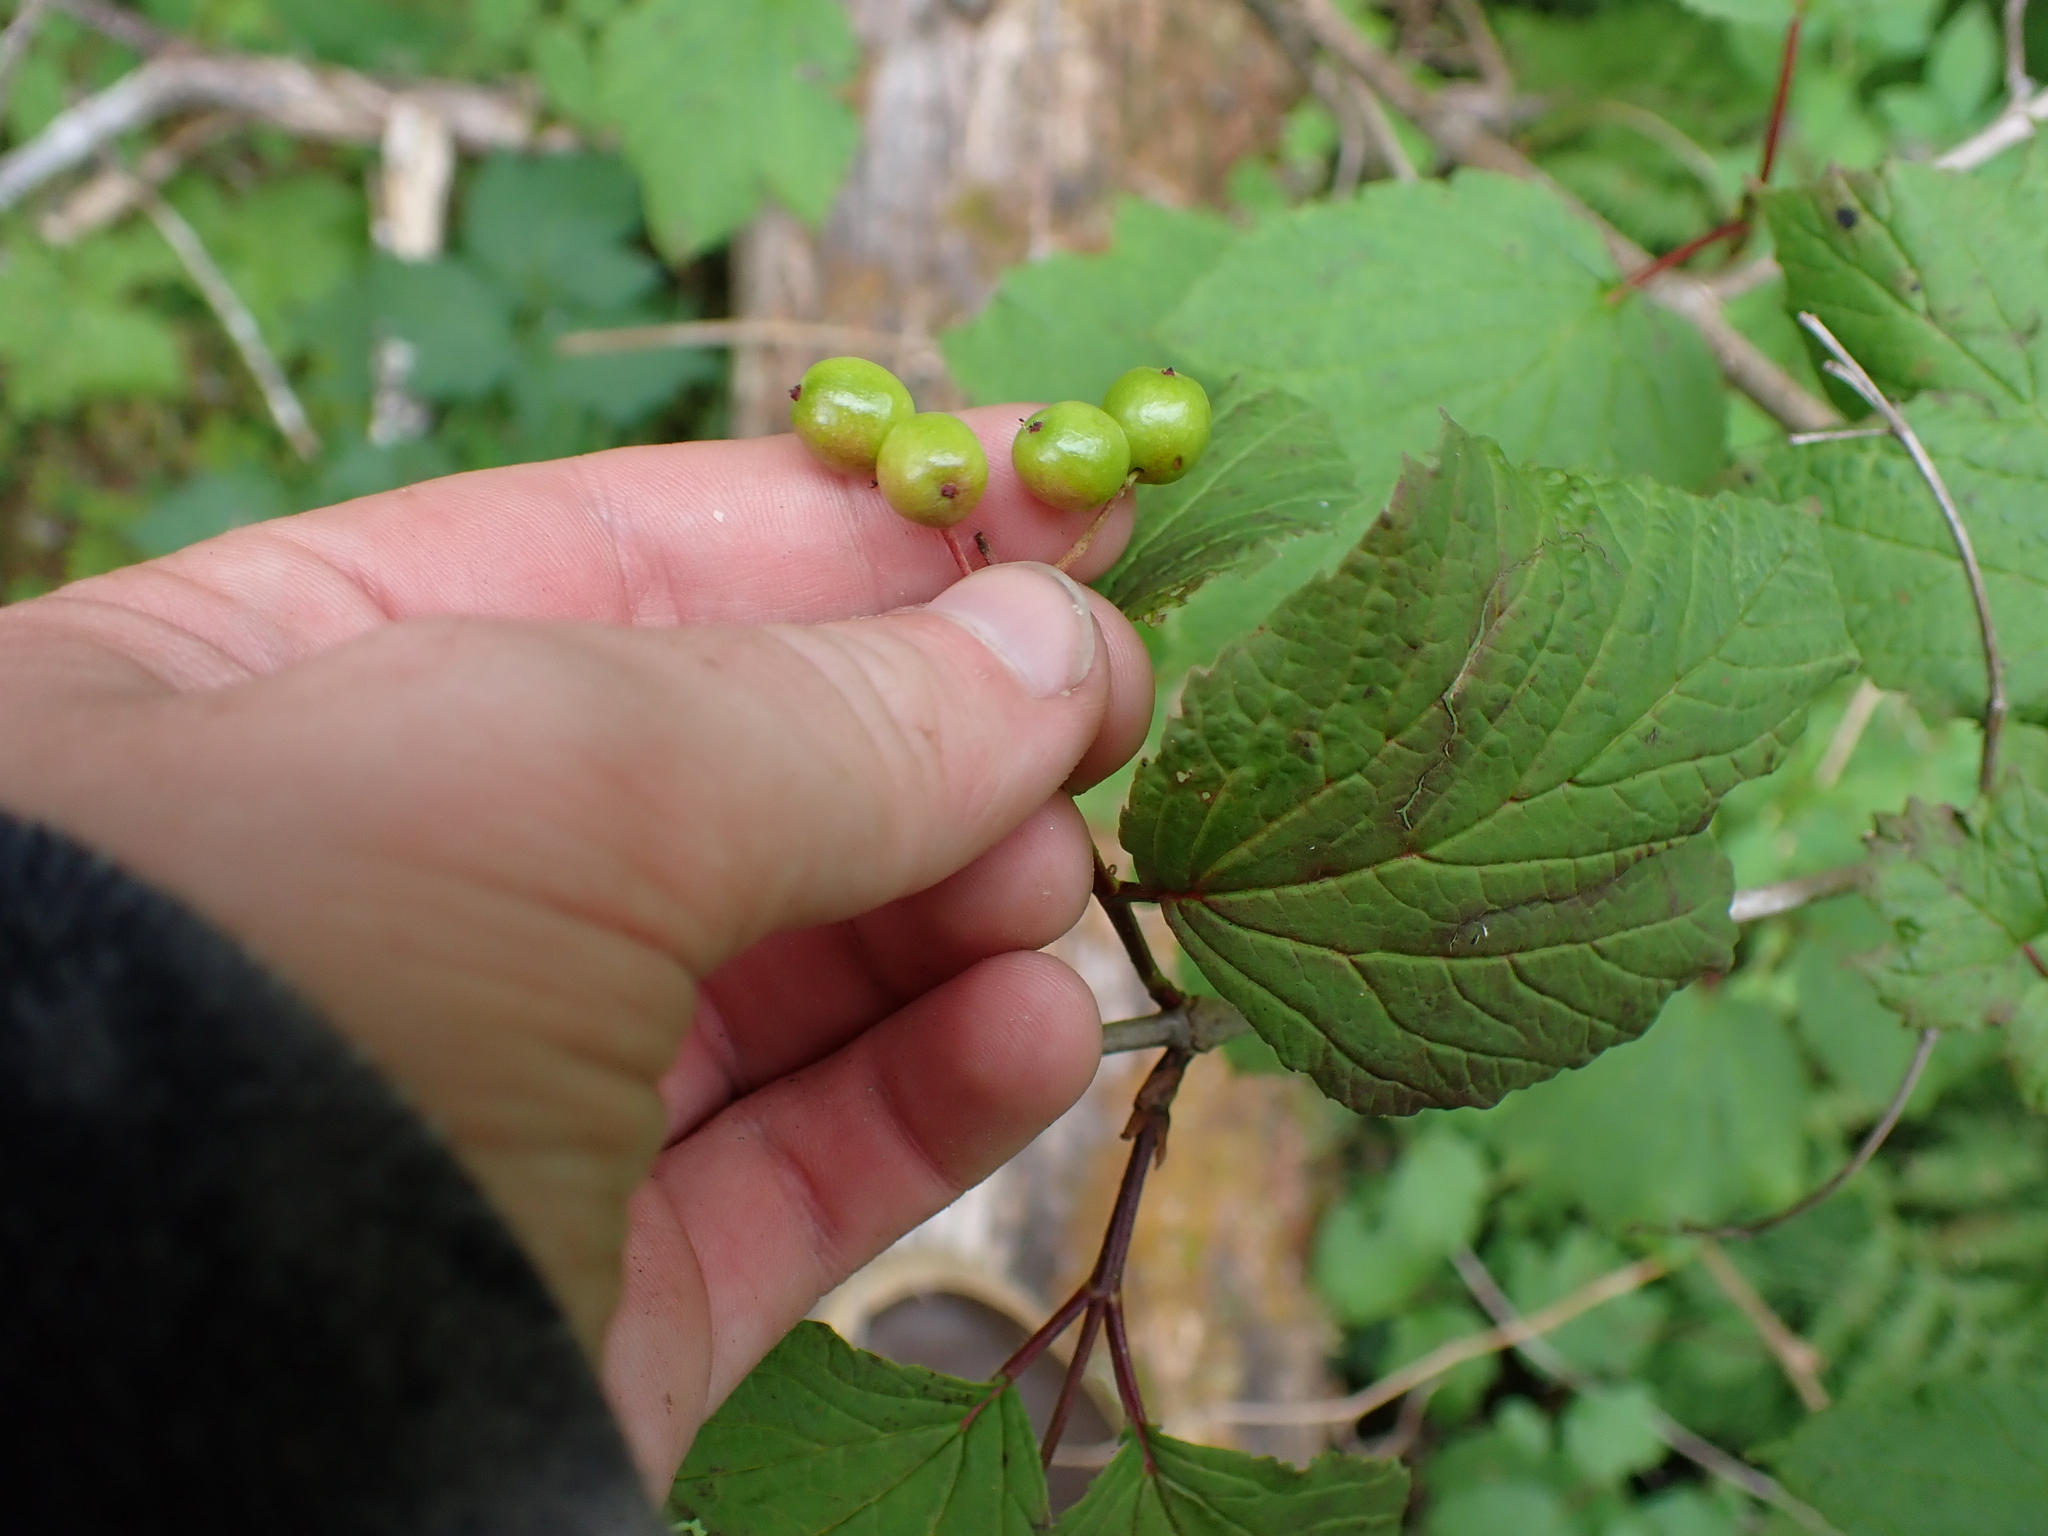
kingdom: Plantae
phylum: Tracheophyta
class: Magnoliopsida
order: Dipsacales
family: Viburnaceae
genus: Viburnum
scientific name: Viburnum edule
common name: Mooseberry
